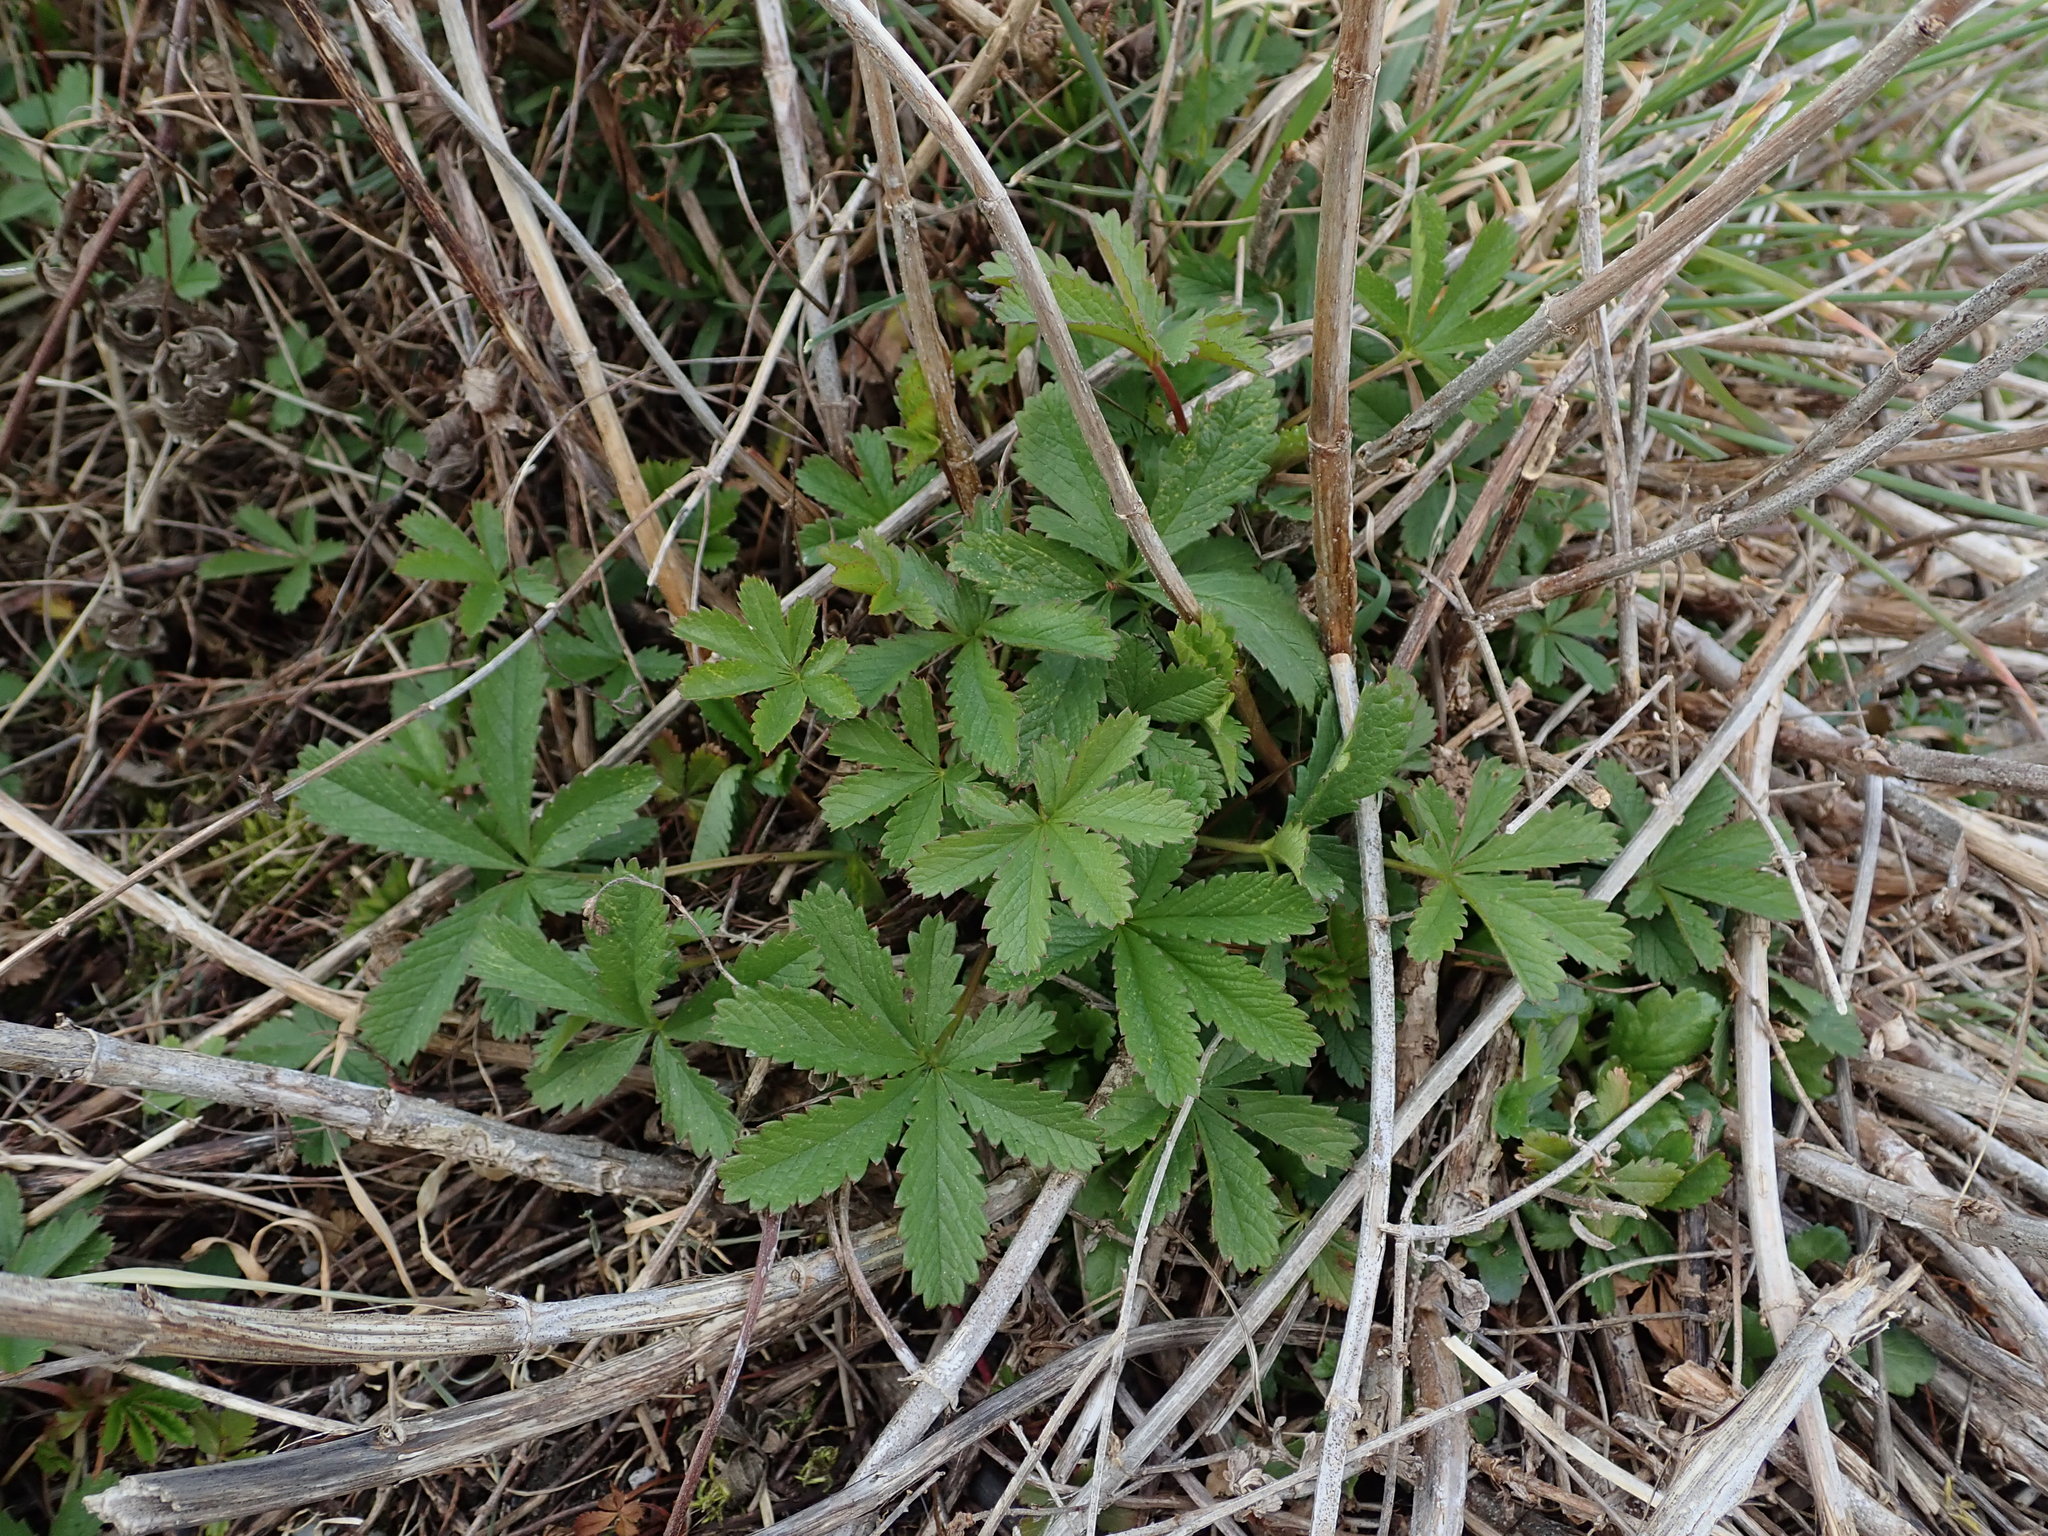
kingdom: Plantae
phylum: Tracheophyta
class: Magnoliopsida
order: Rosales
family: Rosaceae
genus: Potentilla
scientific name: Potentilla reptans
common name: Creeping cinquefoil
